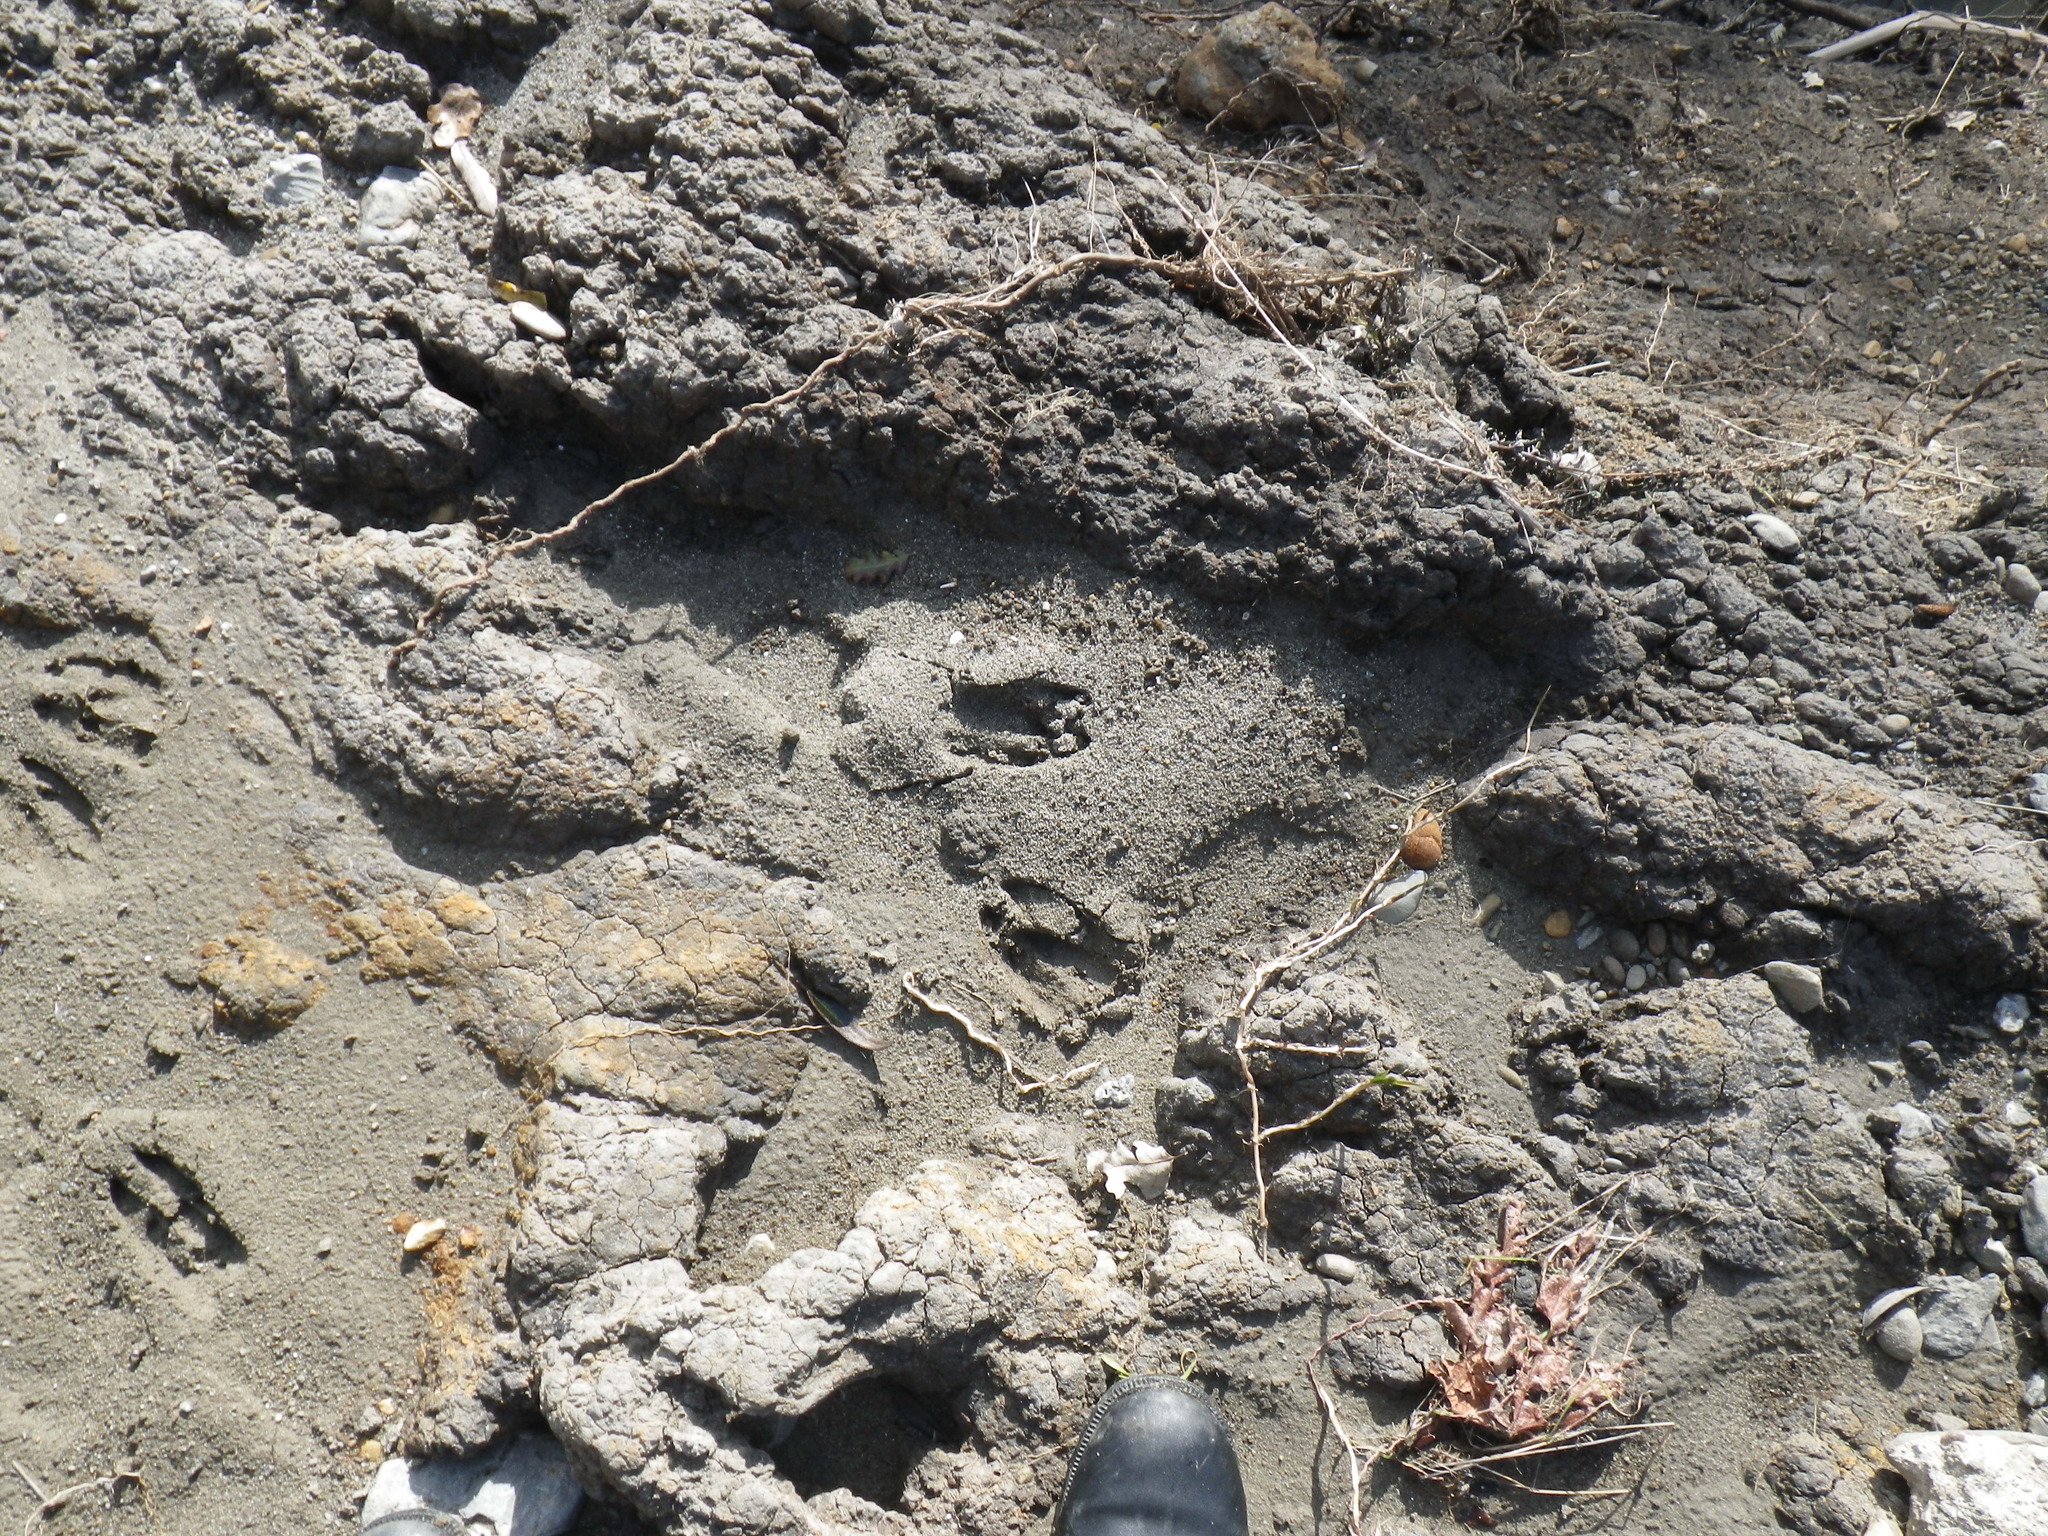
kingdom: Animalia
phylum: Chordata
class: Mammalia
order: Artiodactyla
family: Cervidae
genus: Odocoileus
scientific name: Odocoileus hemionus
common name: Mule deer
